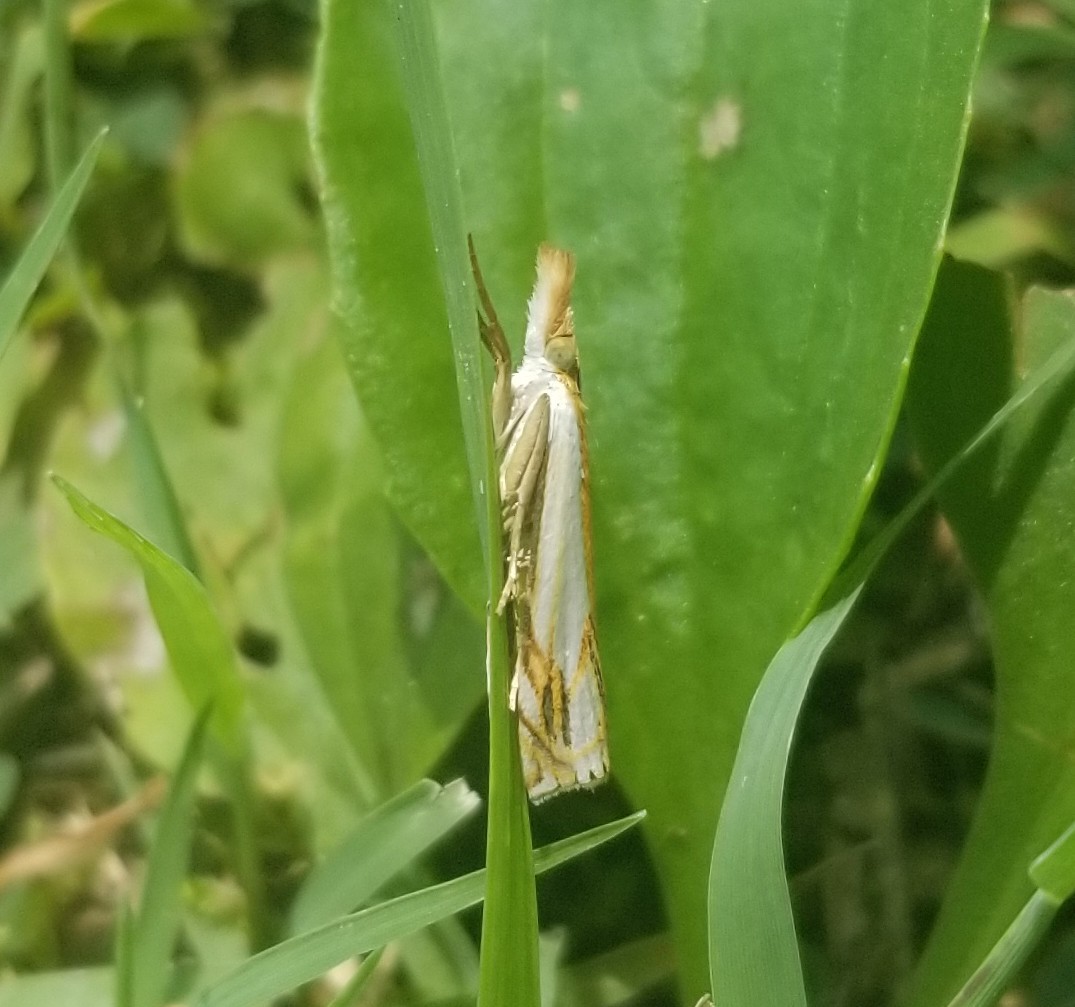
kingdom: Animalia
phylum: Arthropoda
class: Insecta
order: Lepidoptera
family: Crambidae
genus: Crambus
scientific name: Crambus agitatellus
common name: Double-banded grass-veneer
